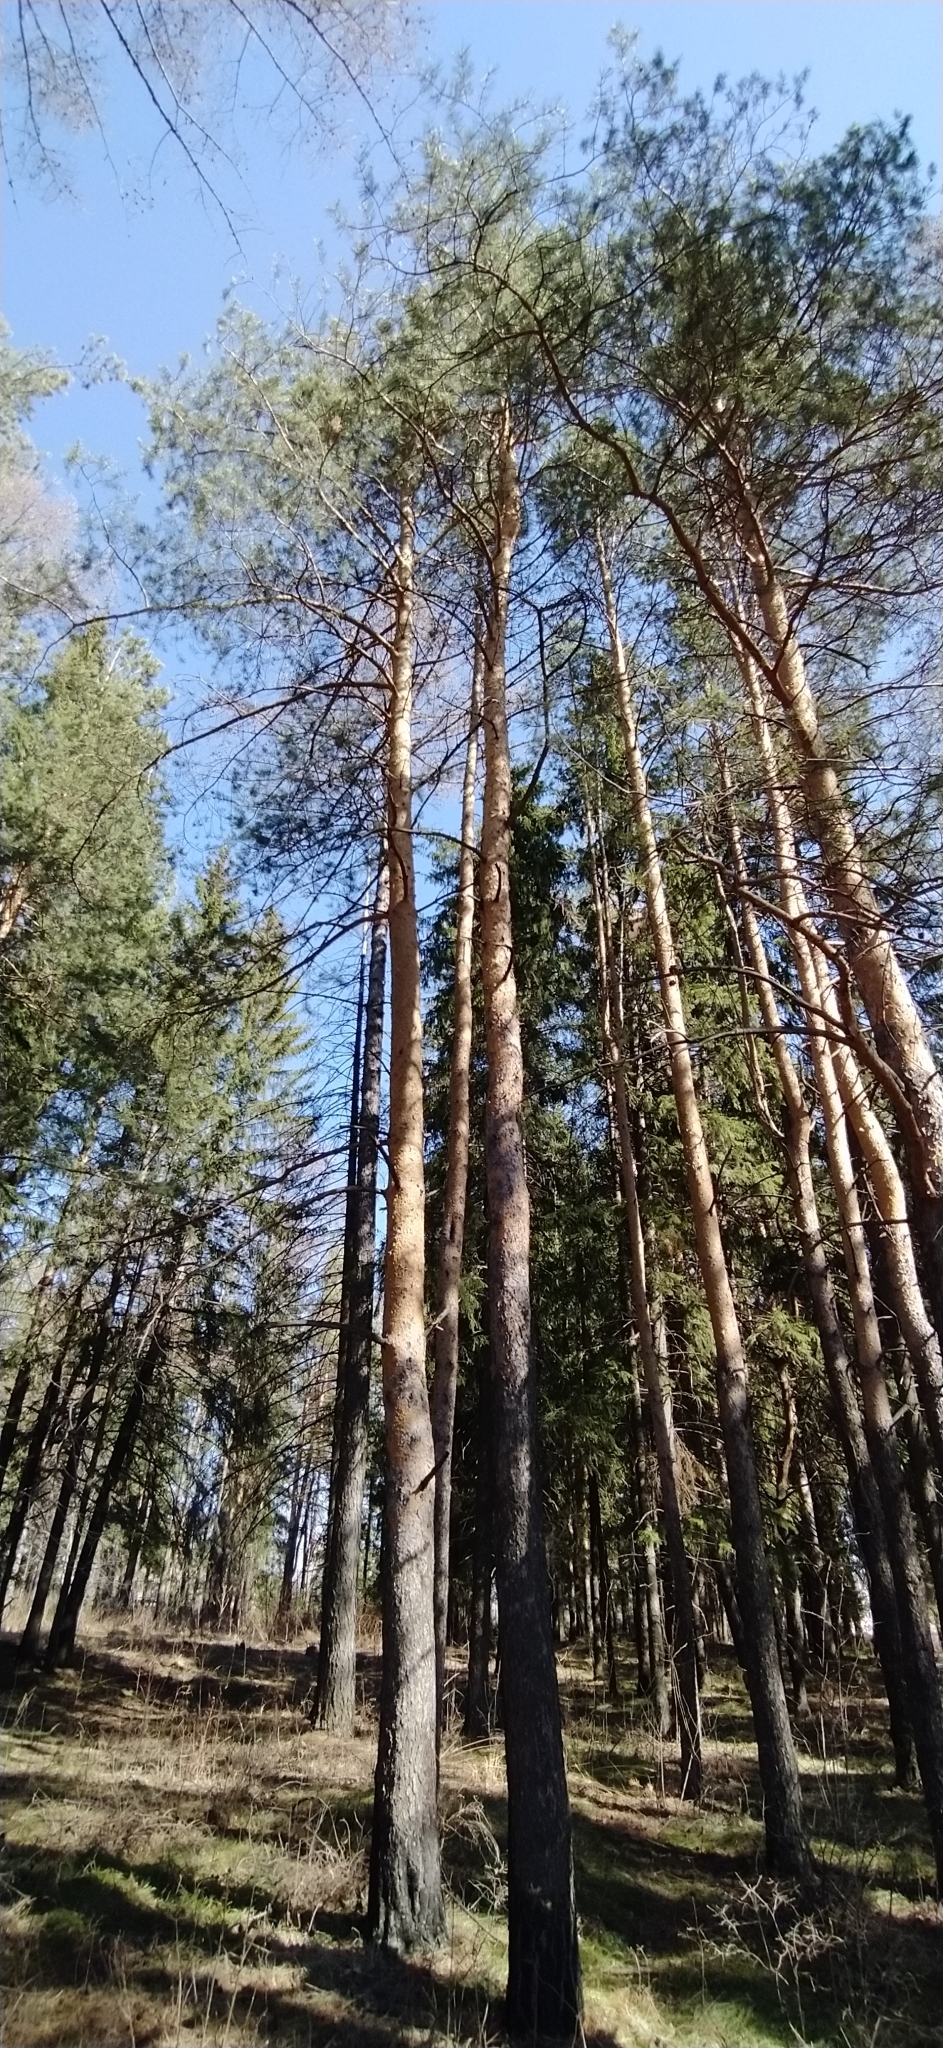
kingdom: Plantae
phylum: Tracheophyta
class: Pinopsida
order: Pinales
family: Pinaceae
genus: Pinus
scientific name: Pinus sylvestris
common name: Scots pine
